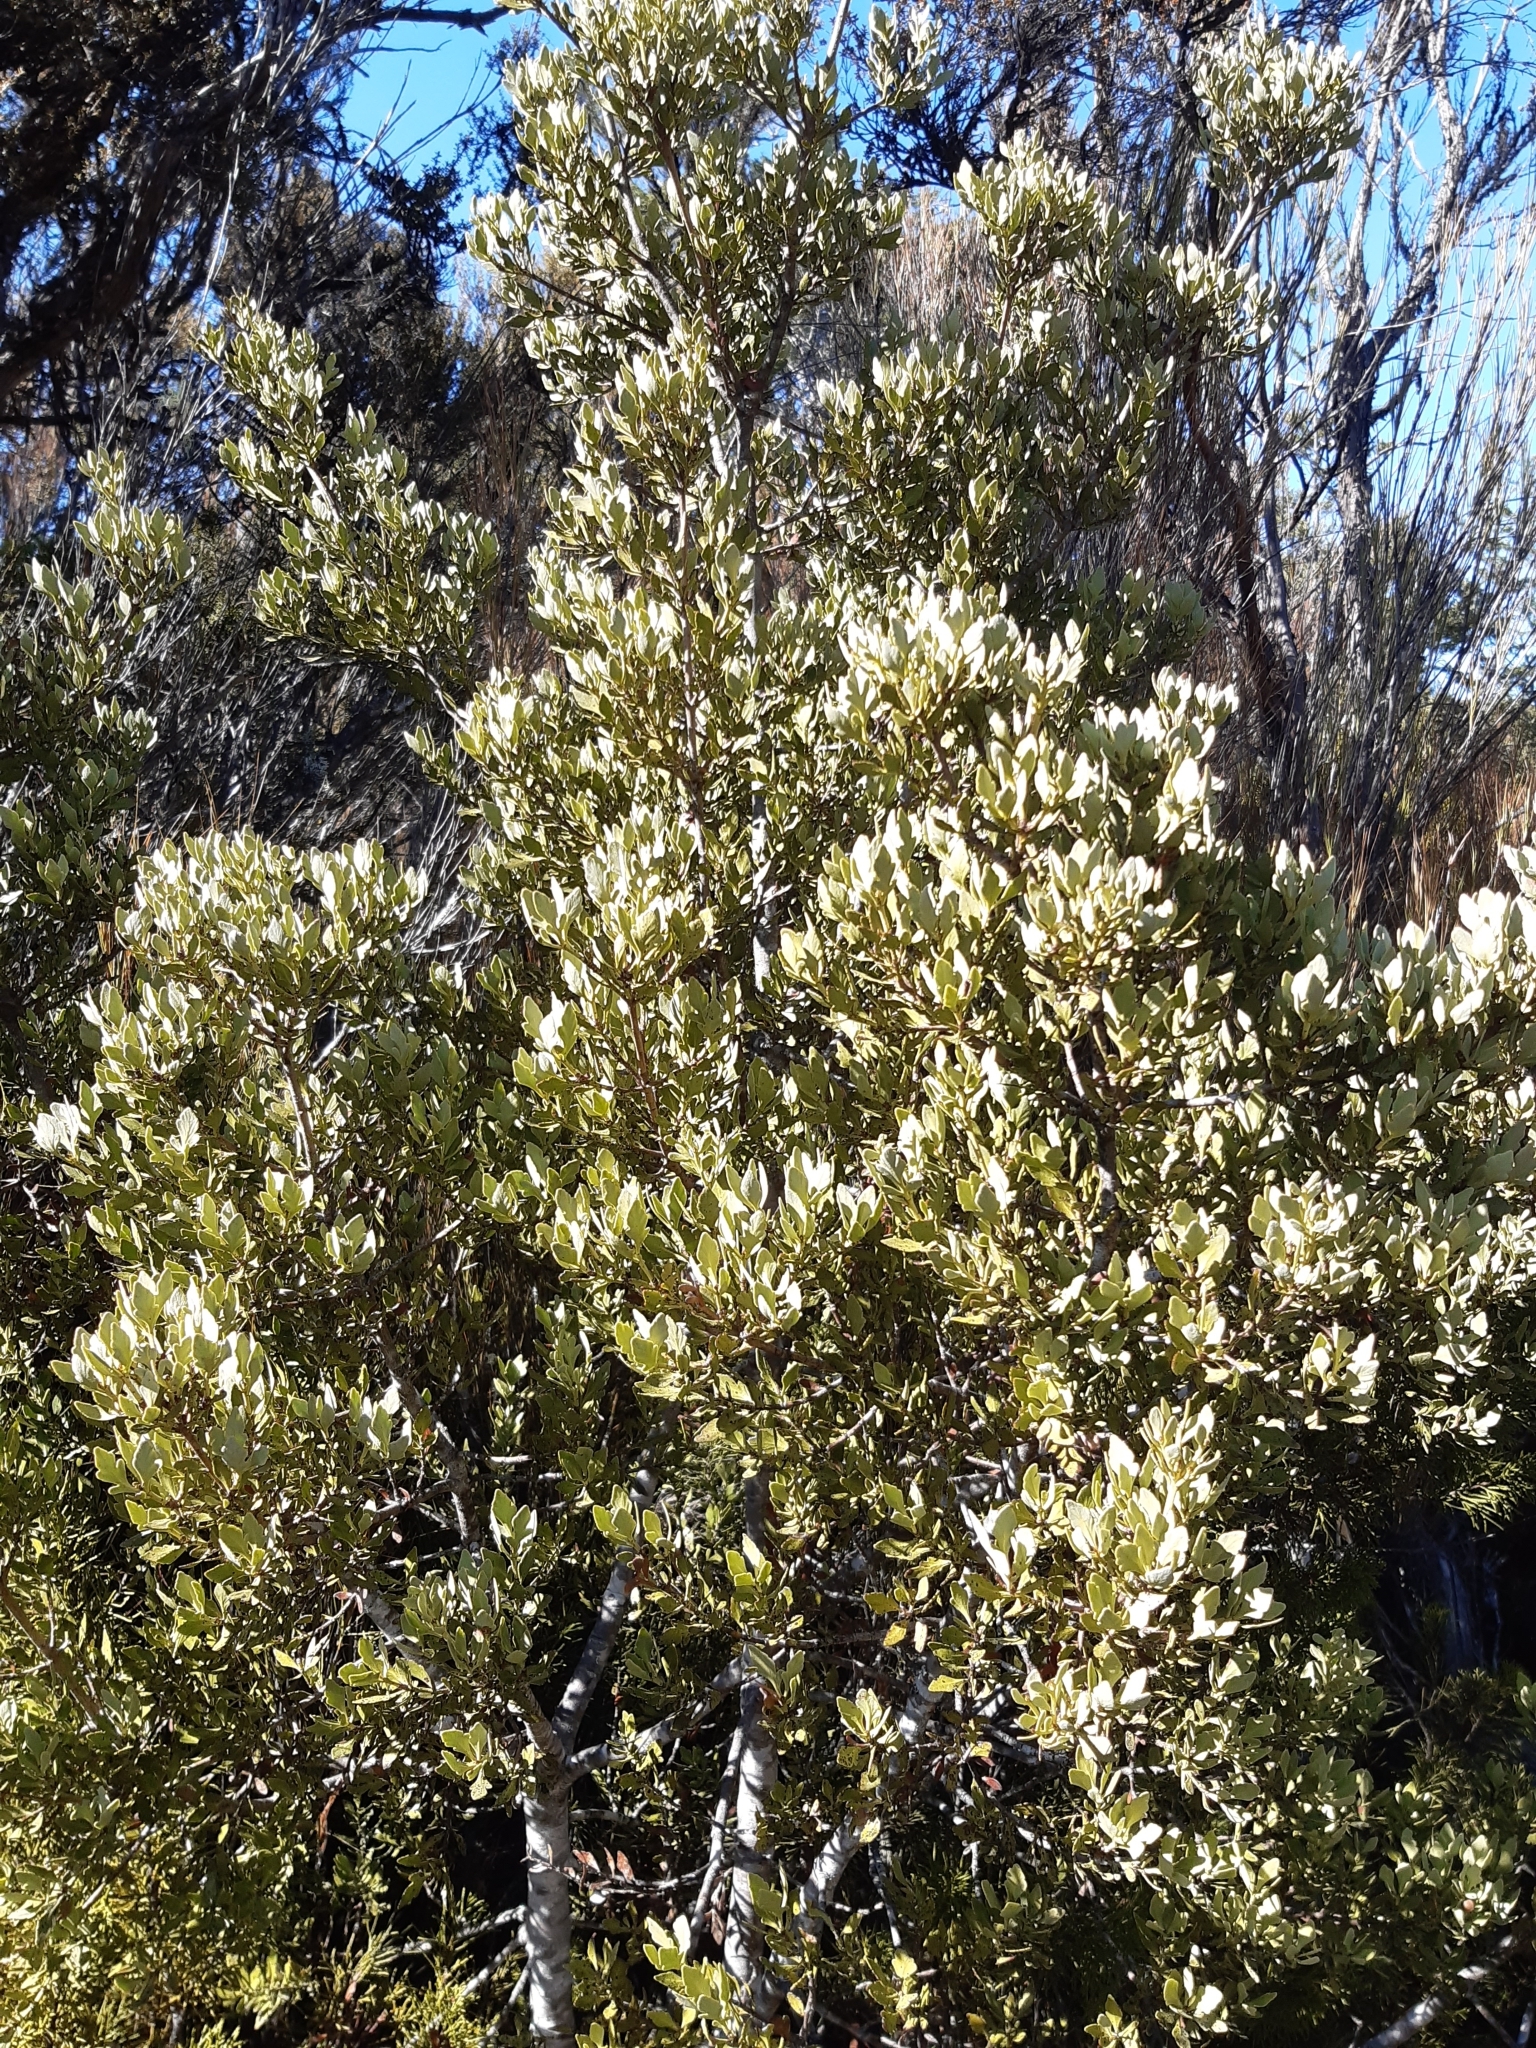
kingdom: Plantae
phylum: Tracheophyta
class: Pinopsida
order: Pinales
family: Phyllocladaceae
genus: Phyllocladus
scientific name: Phyllocladus trichomanoides
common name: Celery pine
